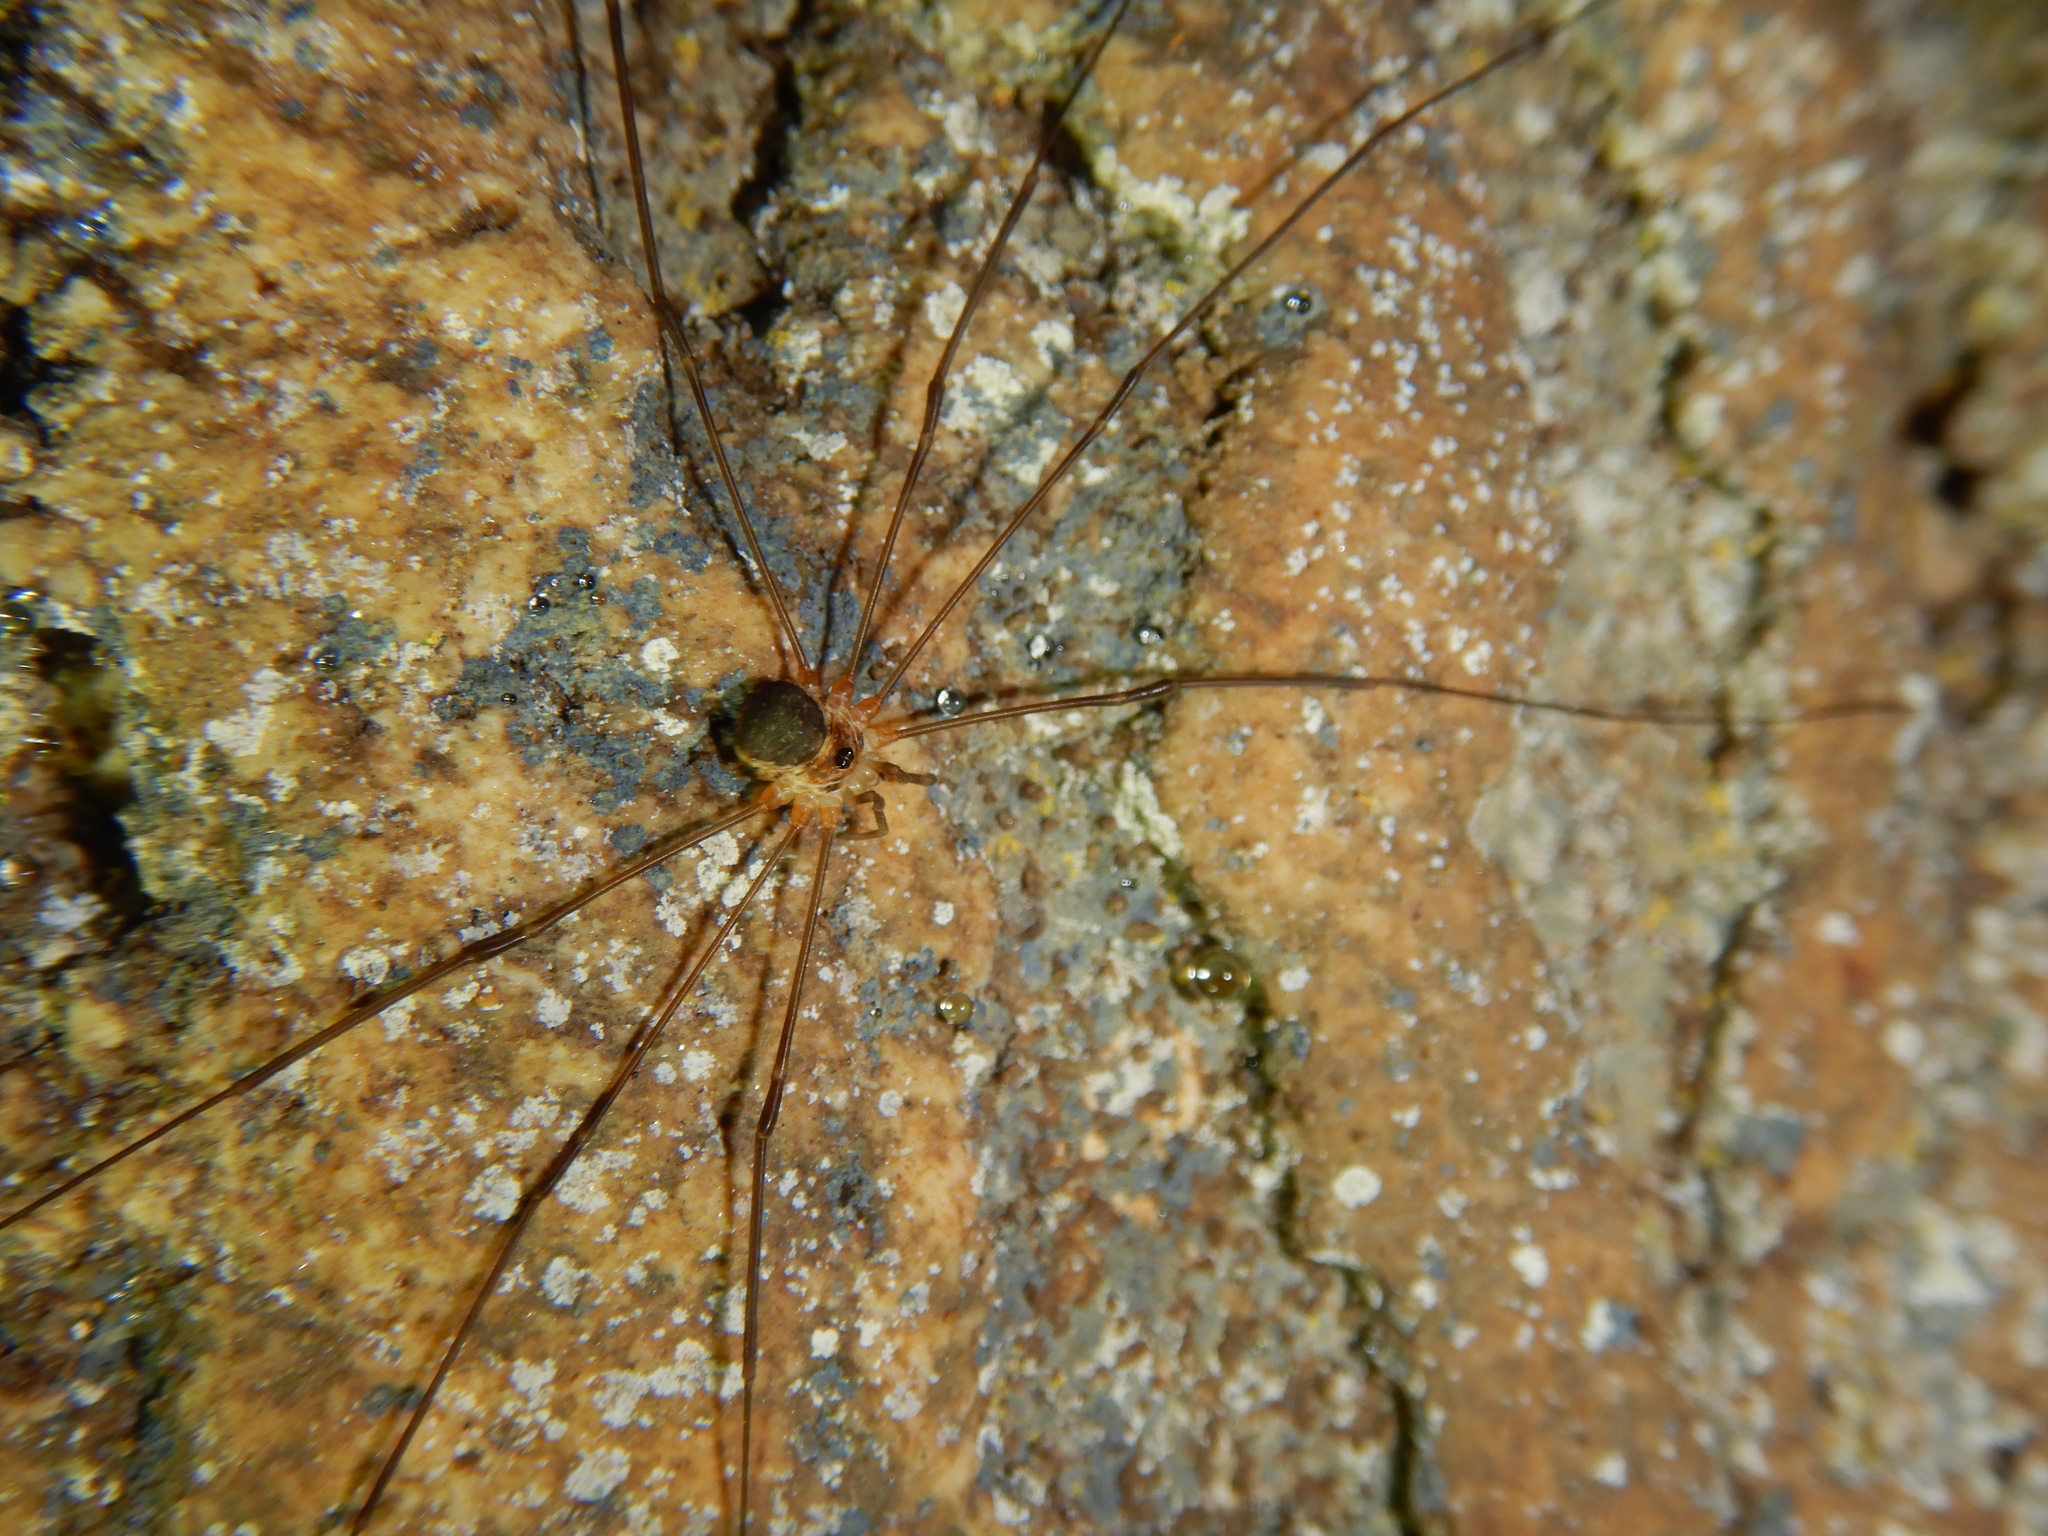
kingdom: Animalia
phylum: Arthropoda
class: Arachnida
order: Opiliones
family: Phalangiidae
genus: Amilenus
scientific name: Amilenus aurantiacus
